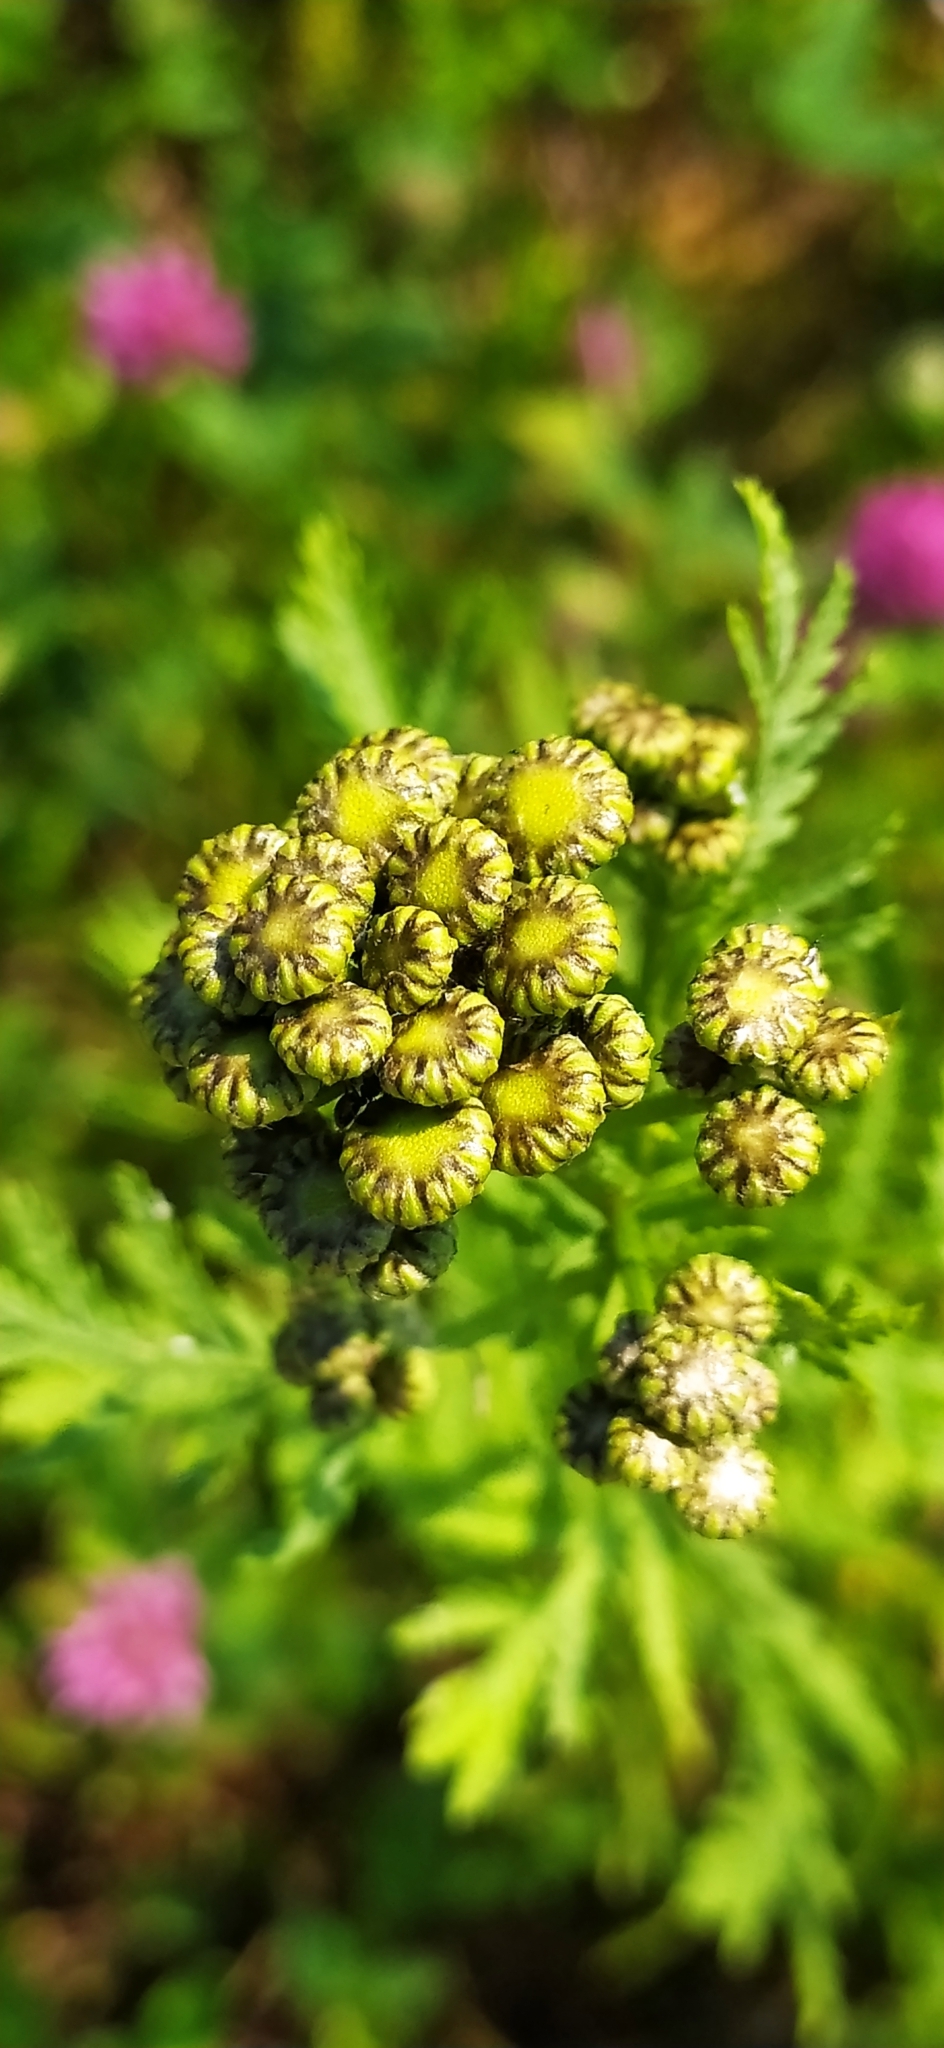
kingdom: Plantae
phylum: Tracheophyta
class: Magnoliopsida
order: Asterales
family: Asteraceae
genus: Tanacetum
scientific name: Tanacetum vulgare
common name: Common tansy
